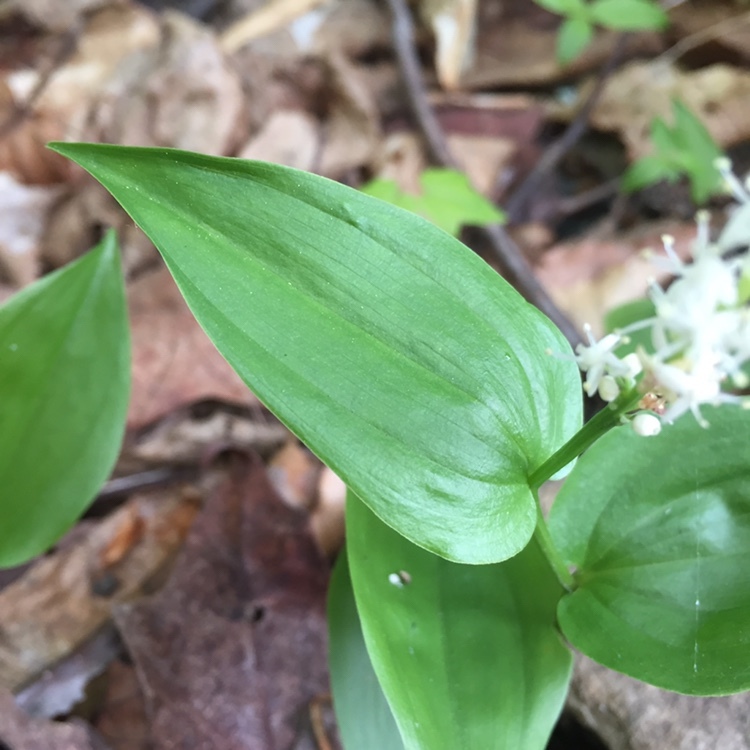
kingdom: Plantae
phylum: Tracheophyta
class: Liliopsida
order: Asparagales
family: Asparagaceae
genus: Maianthemum
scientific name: Maianthemum canadense
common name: False lily-of-the-valley
